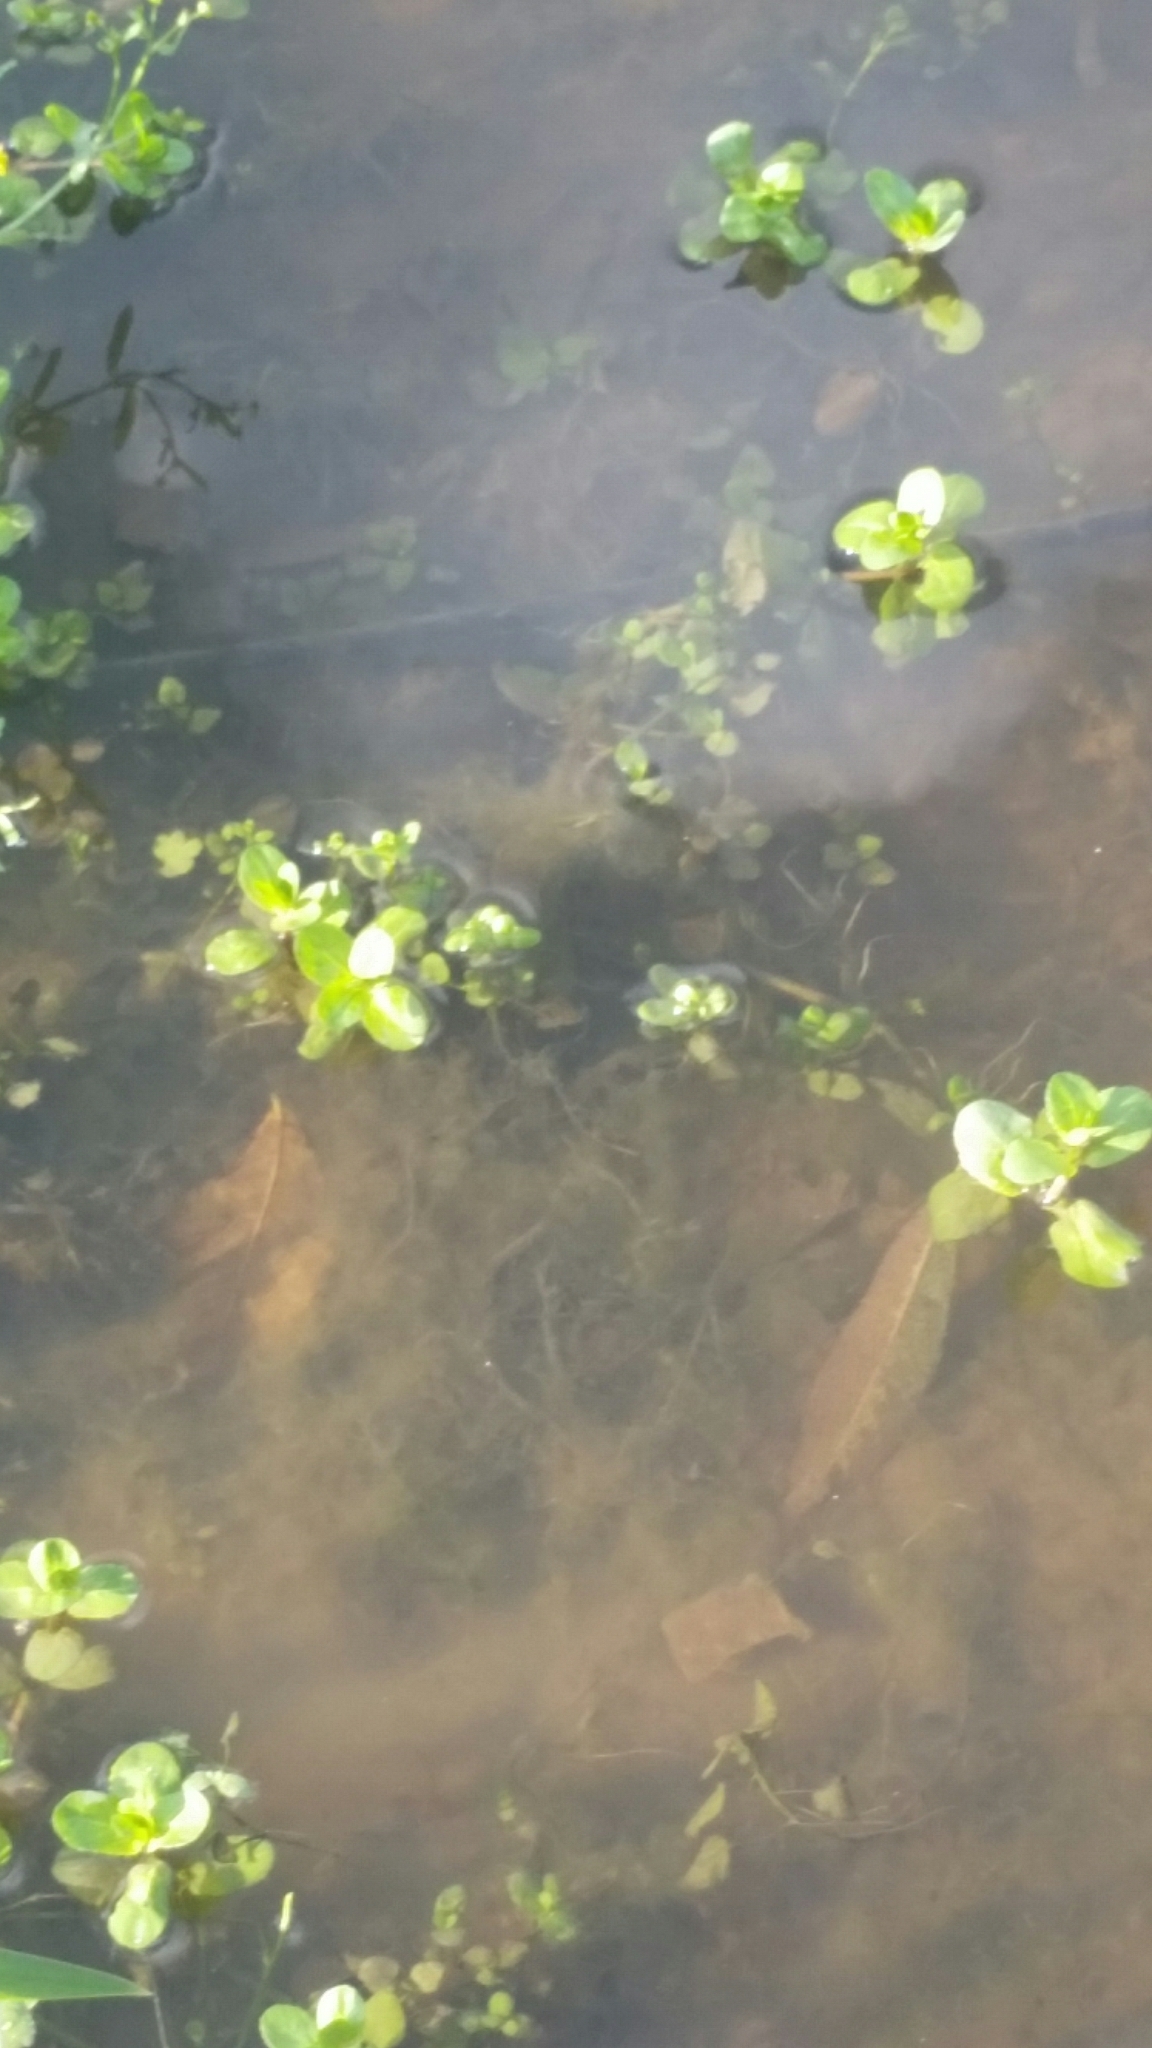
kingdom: Plantae
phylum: Tracheophyta
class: Magnoliopsida
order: Lamiales
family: Plantaginaceae
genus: Veronica
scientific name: Veronica beccabunga
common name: Brooklime
